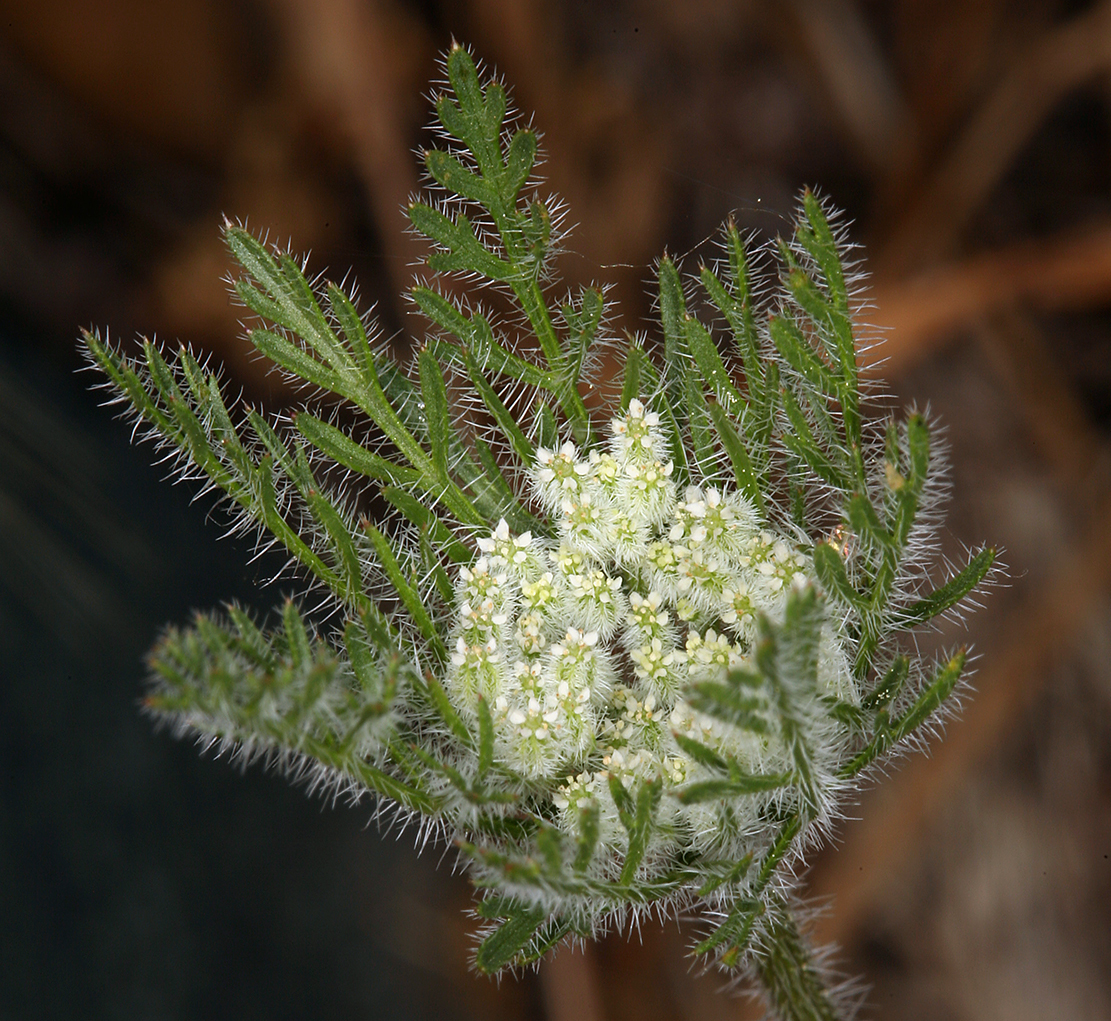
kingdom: Plantae
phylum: Tracheophyta
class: Magnoliopsida
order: Apiales
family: Apiaceae
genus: Daucus
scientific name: Daucus pusillus
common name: Southwest wild carrot
